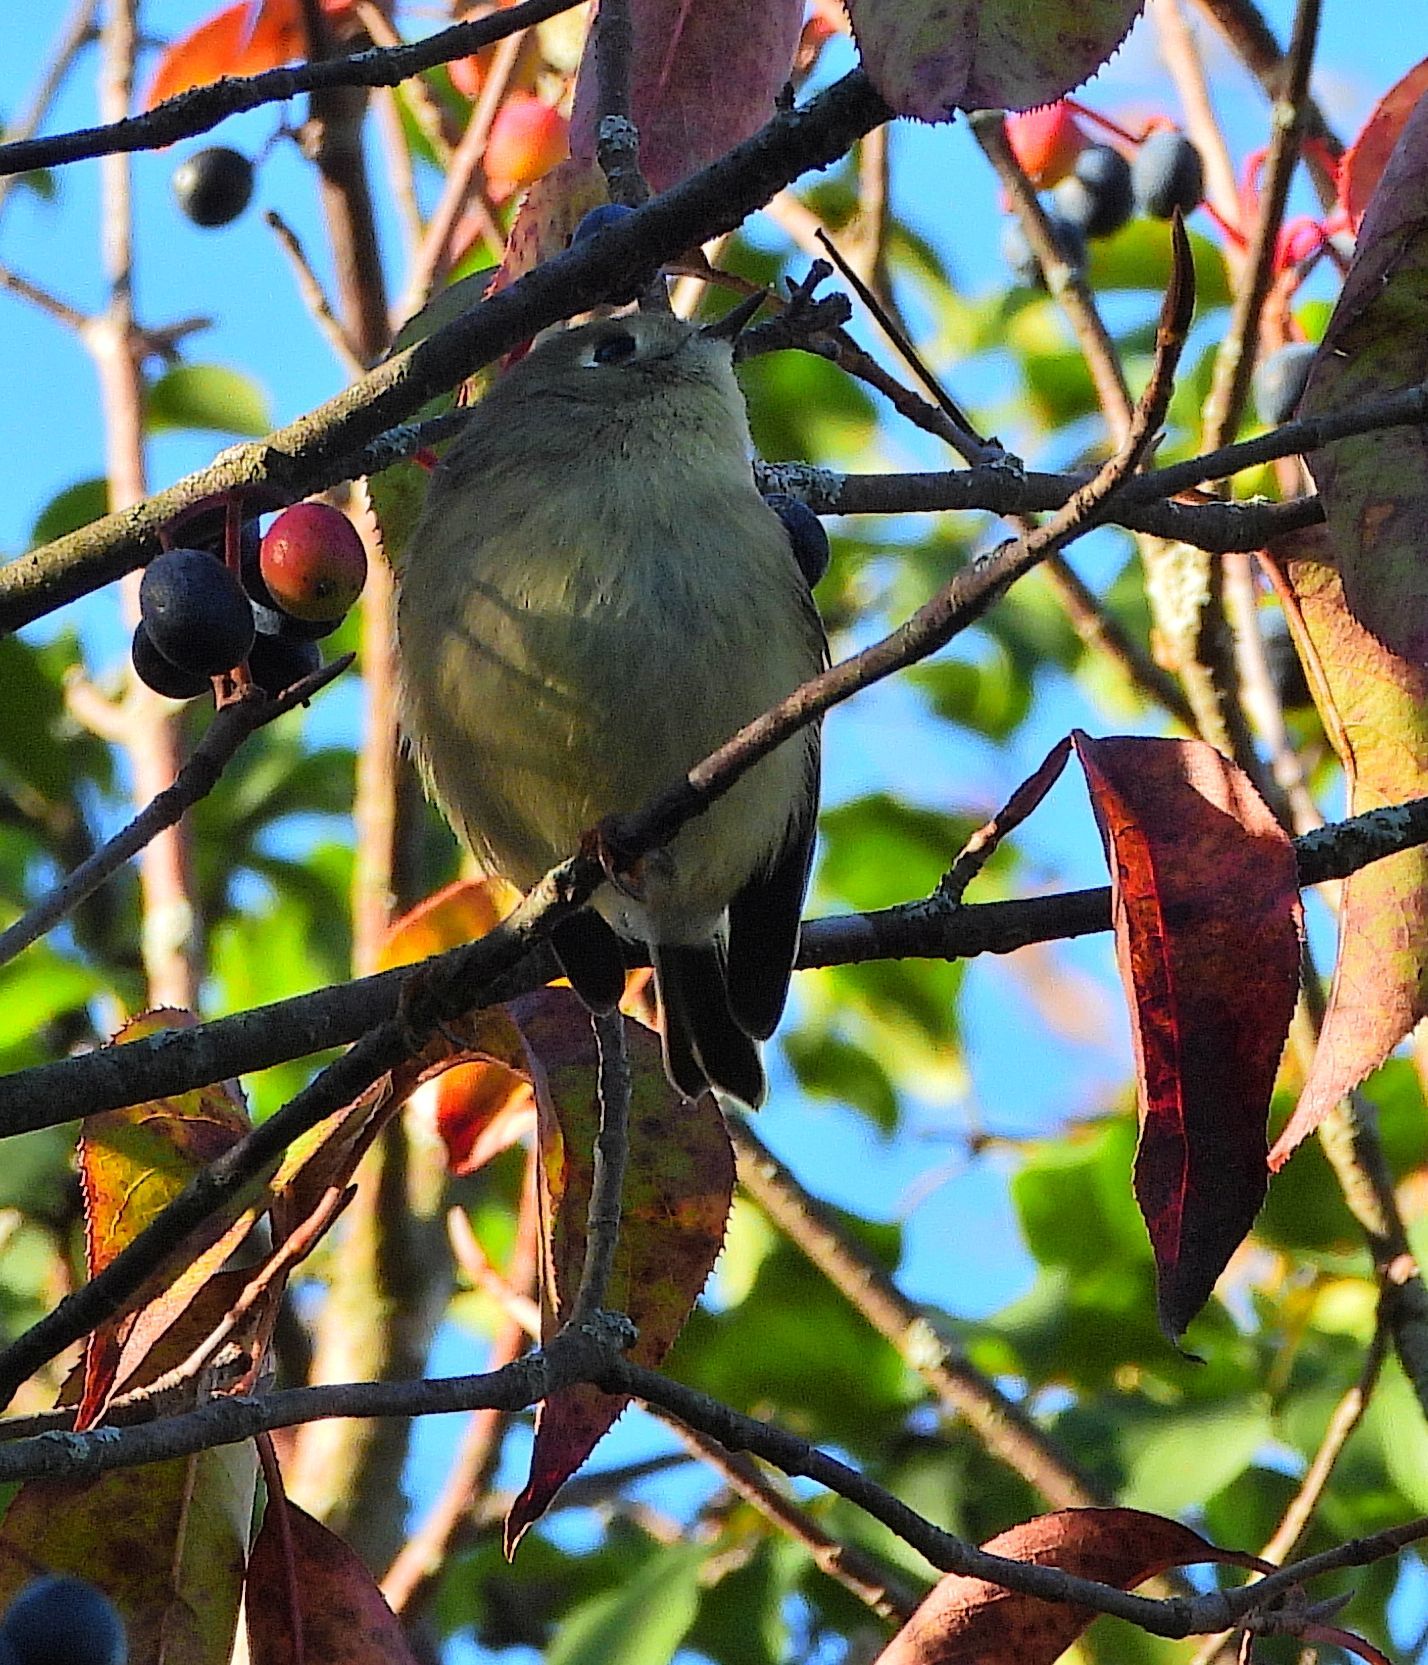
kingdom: Animalia
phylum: Chordata
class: Aves
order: Passeriformes
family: Regulidae
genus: Regulus
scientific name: Regulus calendula
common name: Ruby-crowned kinglet
